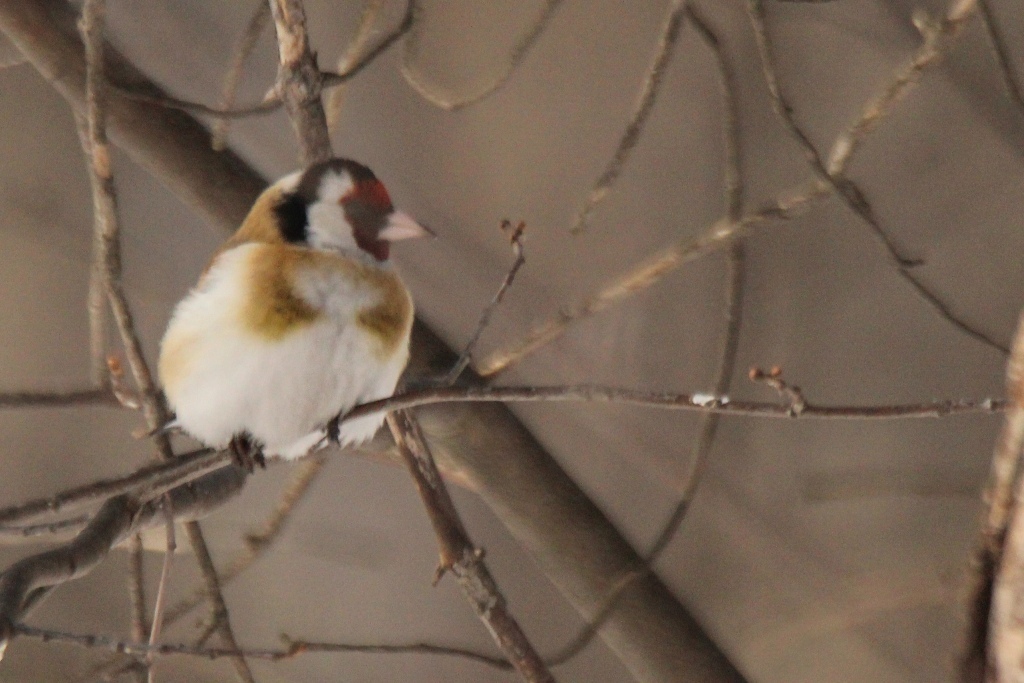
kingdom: Animalia
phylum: Chordata
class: Aves
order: Passeriformes
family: Fringillidae
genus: Carduelis
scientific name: Carduelis carduelis
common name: European goldfinch
